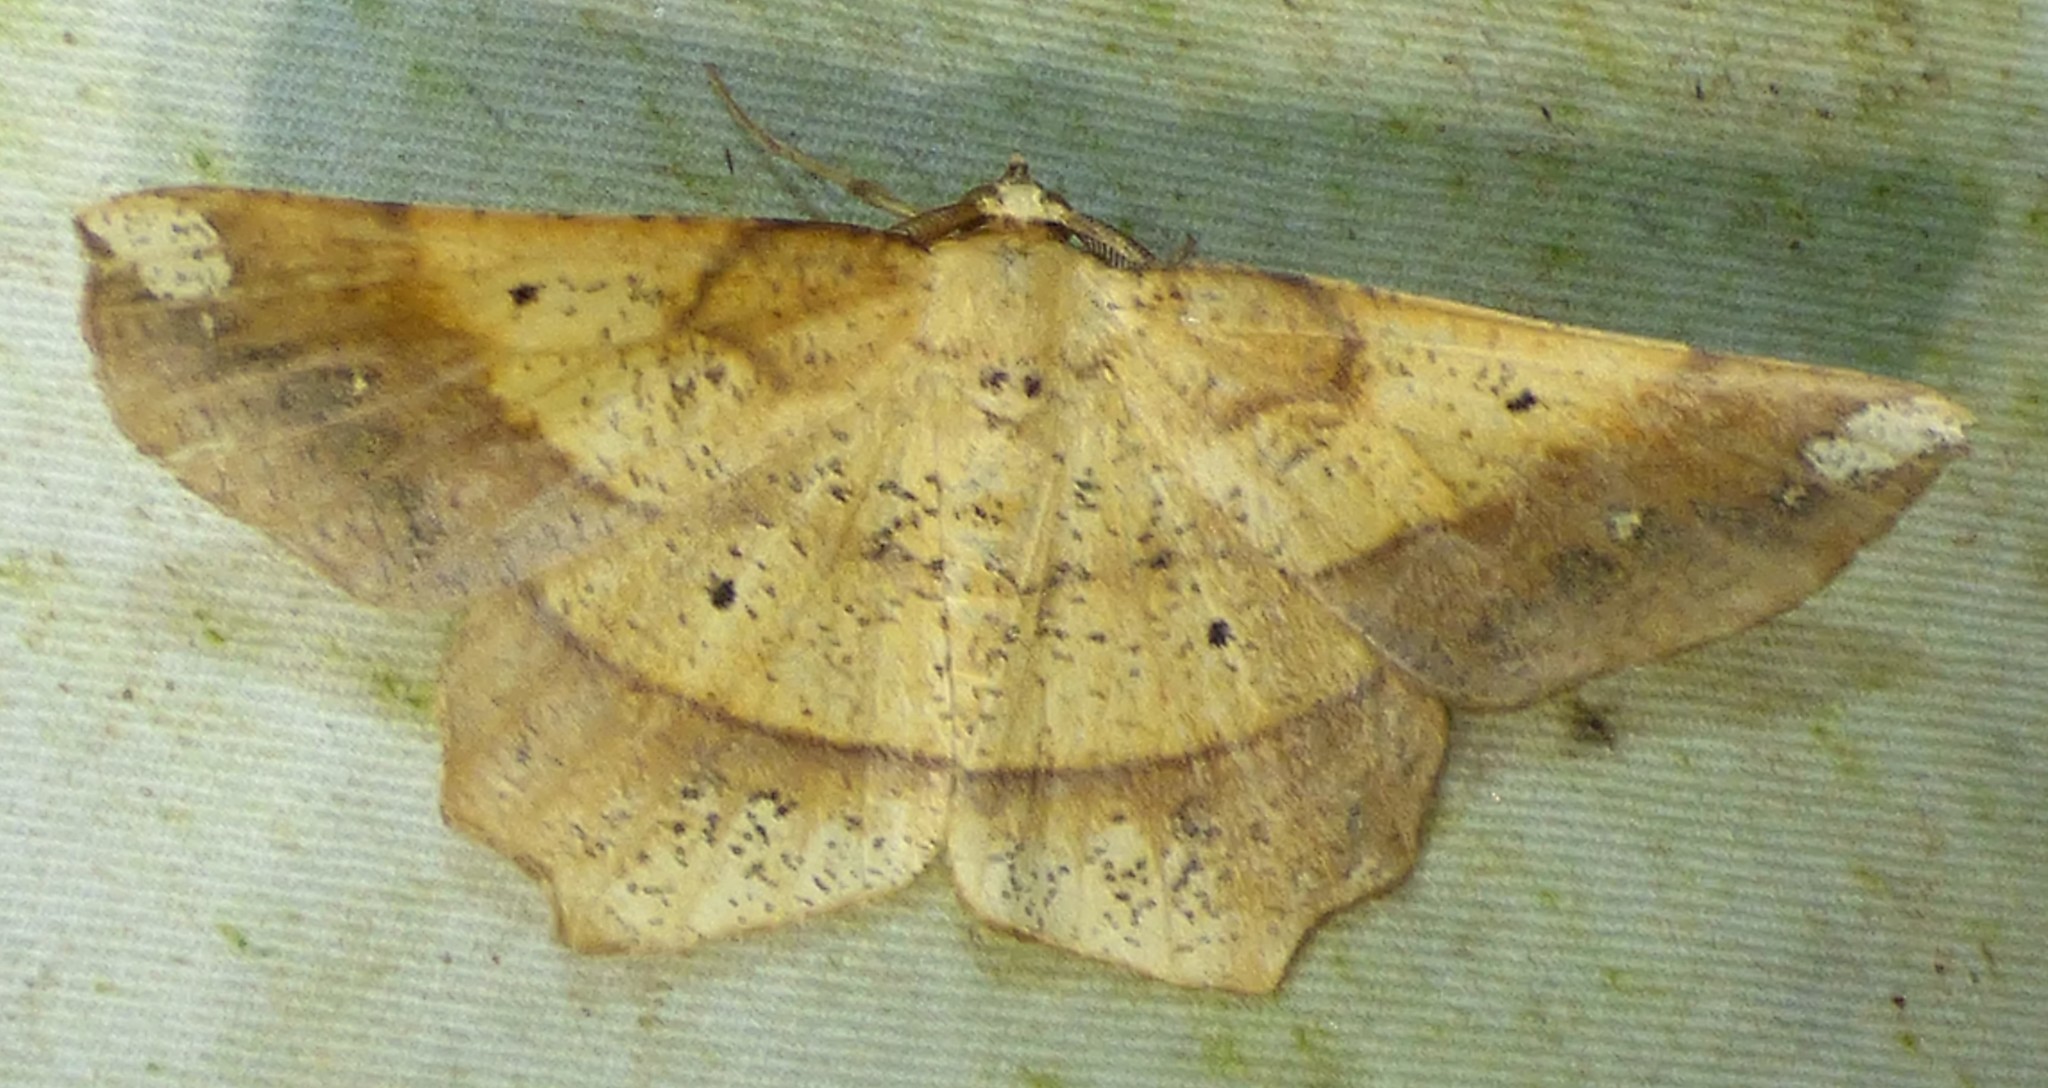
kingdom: Animalia
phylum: Arthropoda
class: Insecta
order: Lepidoptera
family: Geometridae
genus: Euchlaena
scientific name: Euchlaena amoenaria
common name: Deep yellow euchlaena
